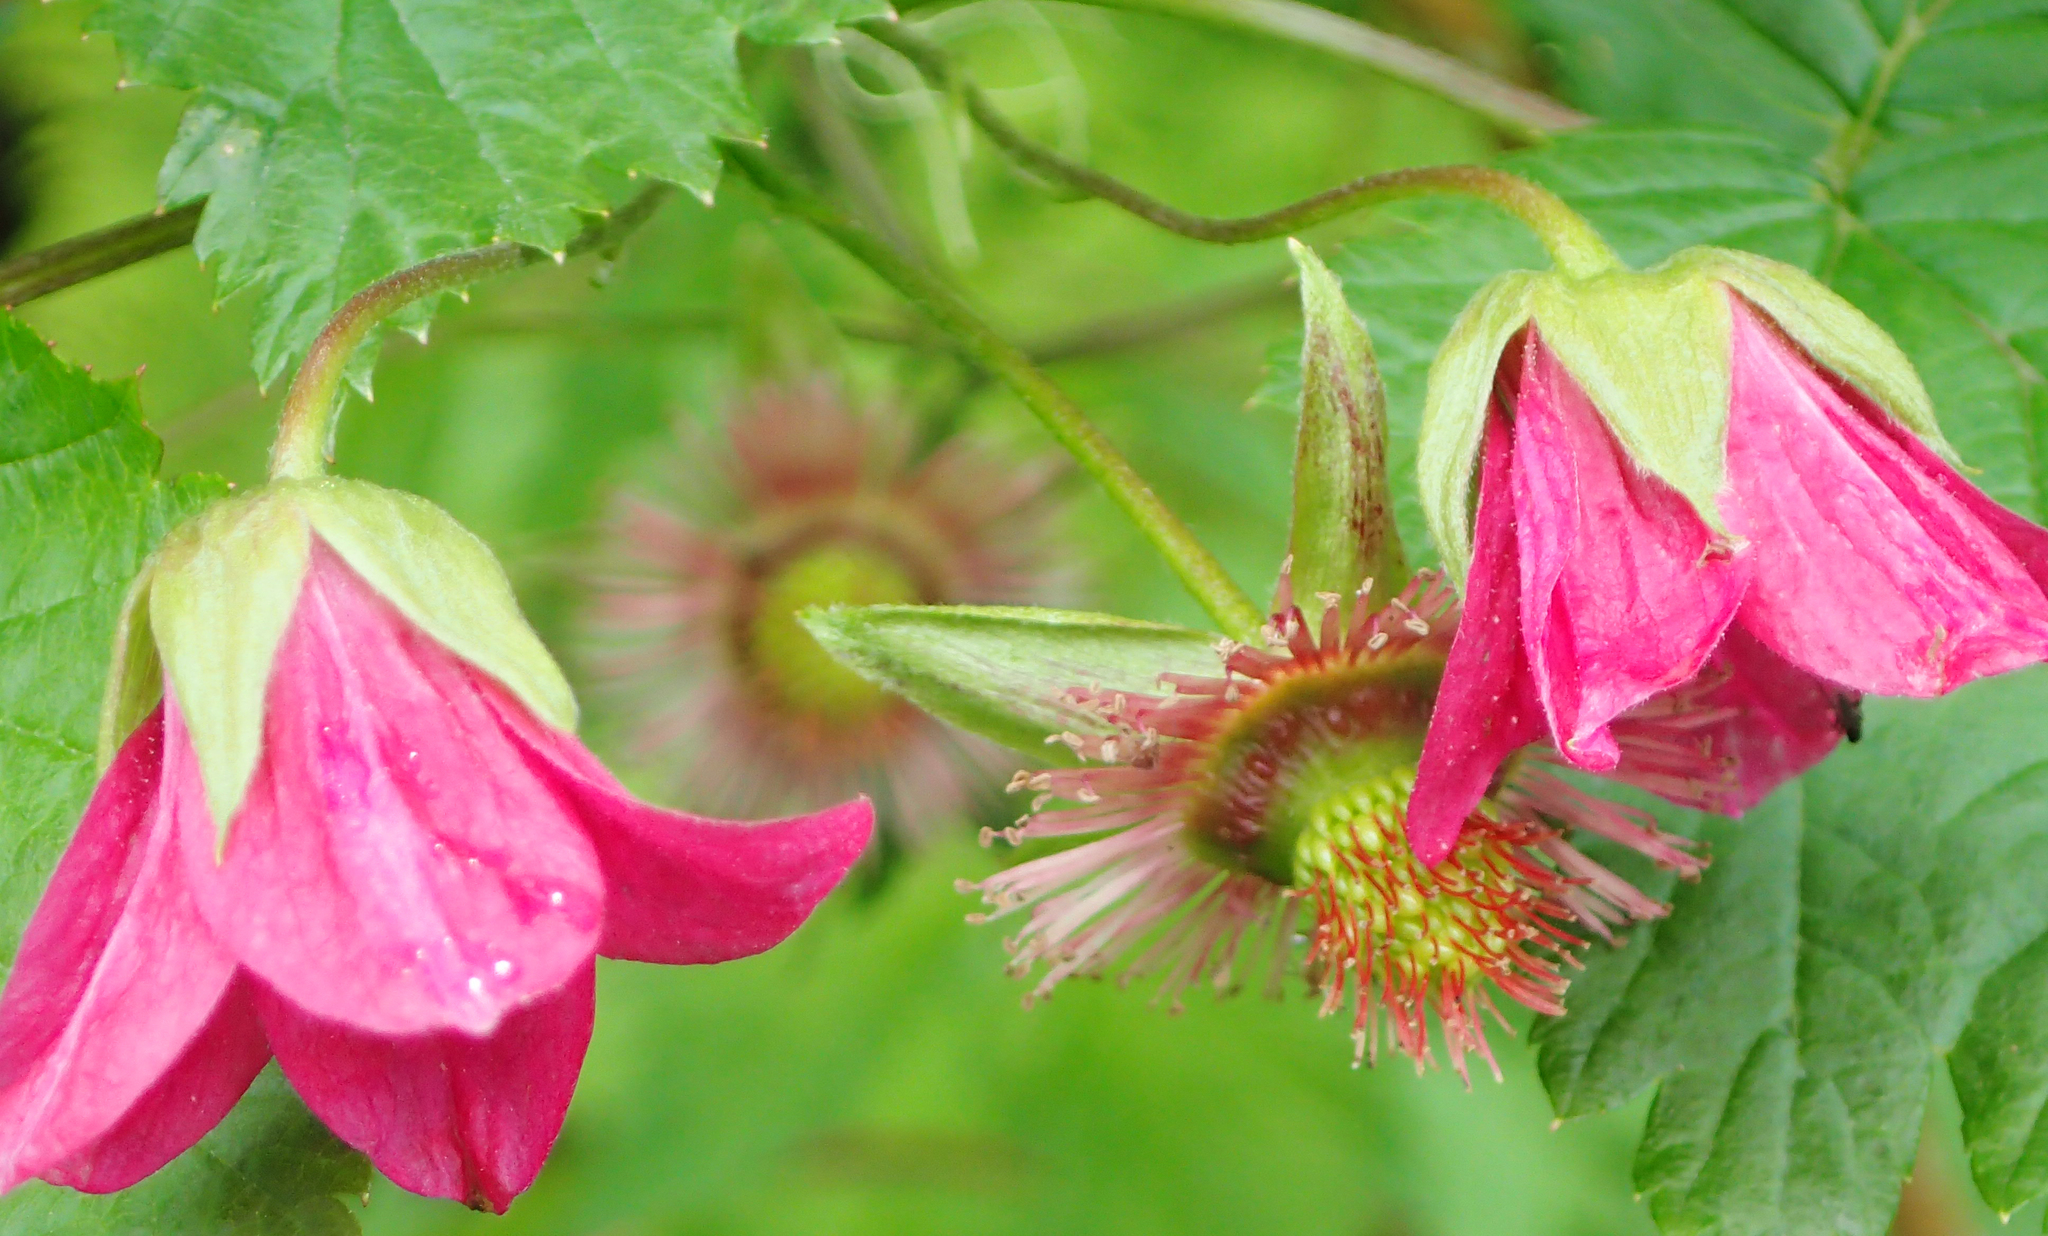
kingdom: Plantae
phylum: Tracheophyta
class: Magnoliopsida
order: Rosales
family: Rosaceae
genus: Rubus
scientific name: Rubus spectabilis
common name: Salmonberry
